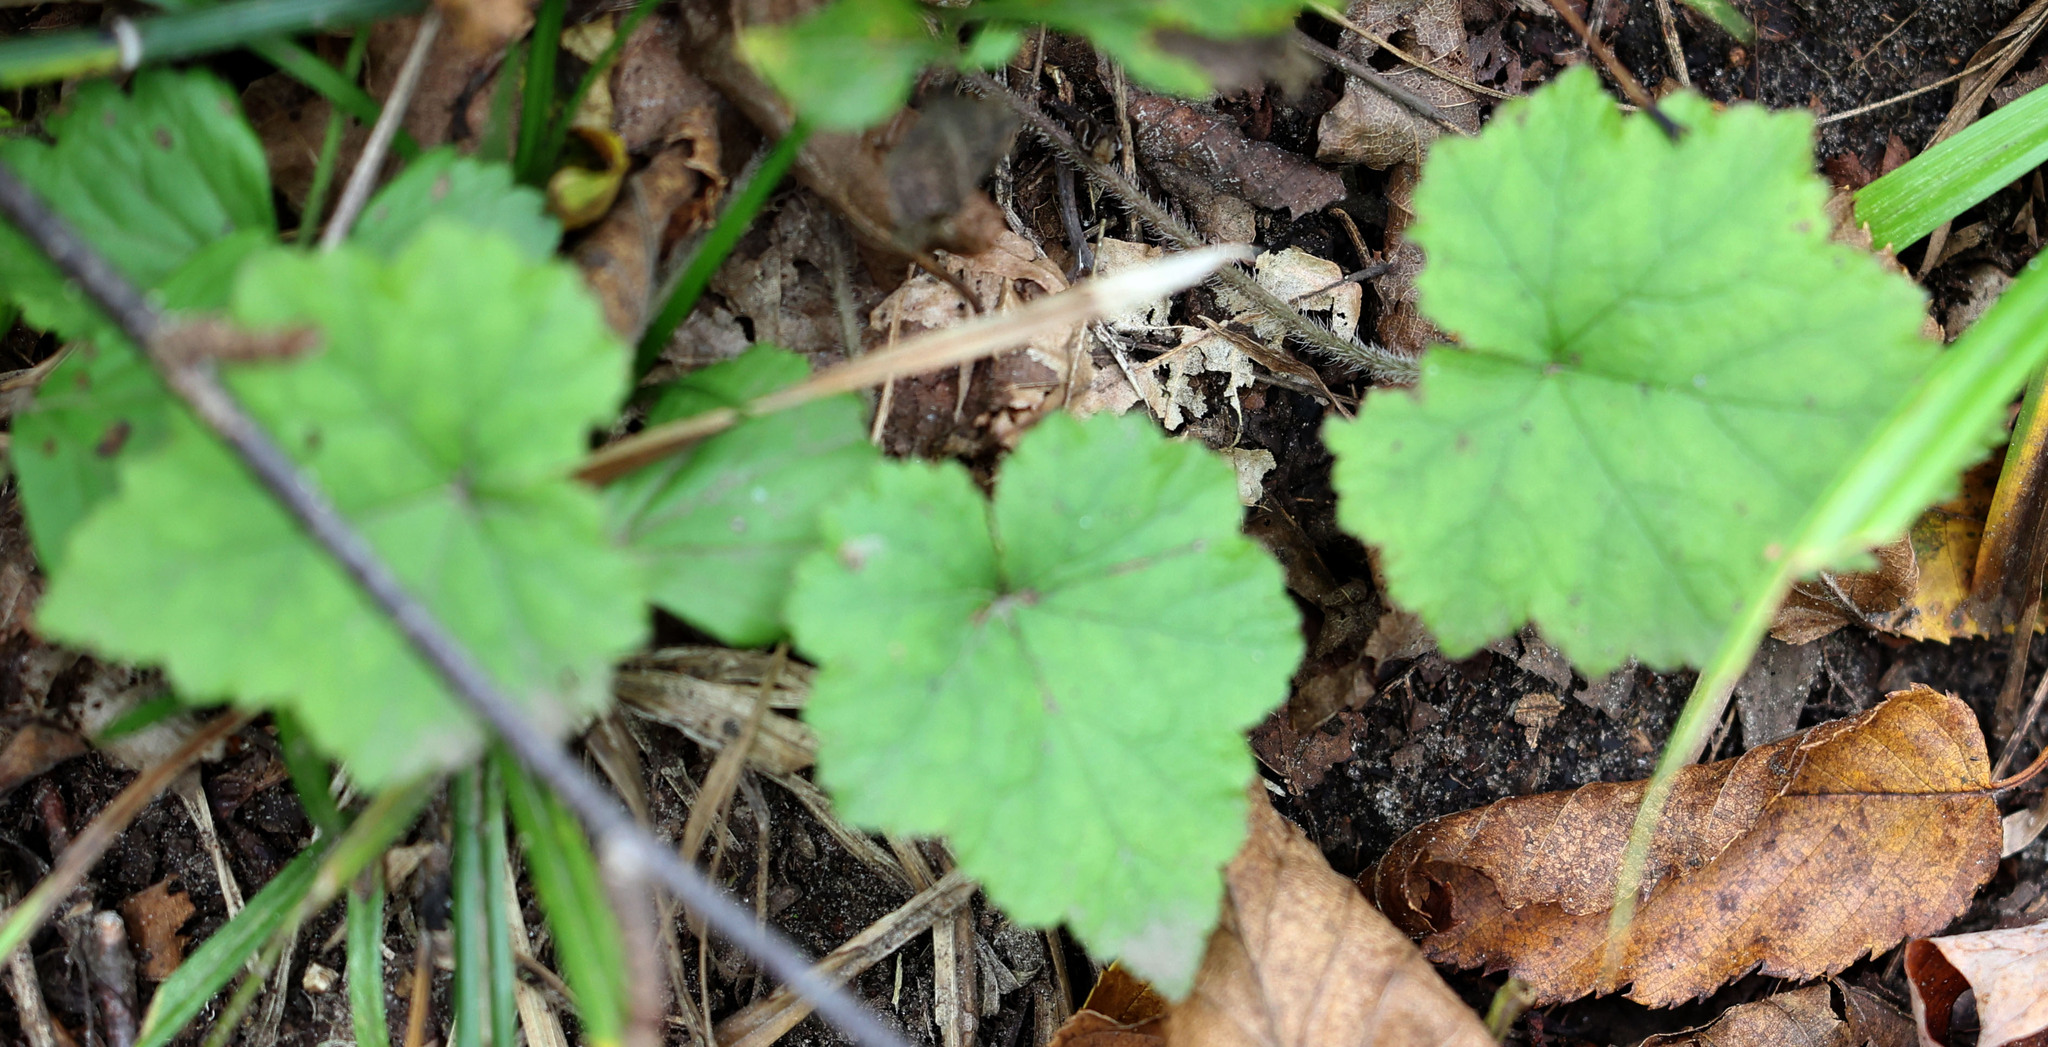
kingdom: Plantae
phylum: Tracheophyta
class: Magnoliopsida
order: Saxifragales
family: Saxifragaceae
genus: Tiarella
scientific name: Tiarella stolonifera
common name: Stoloniferous foamflower
